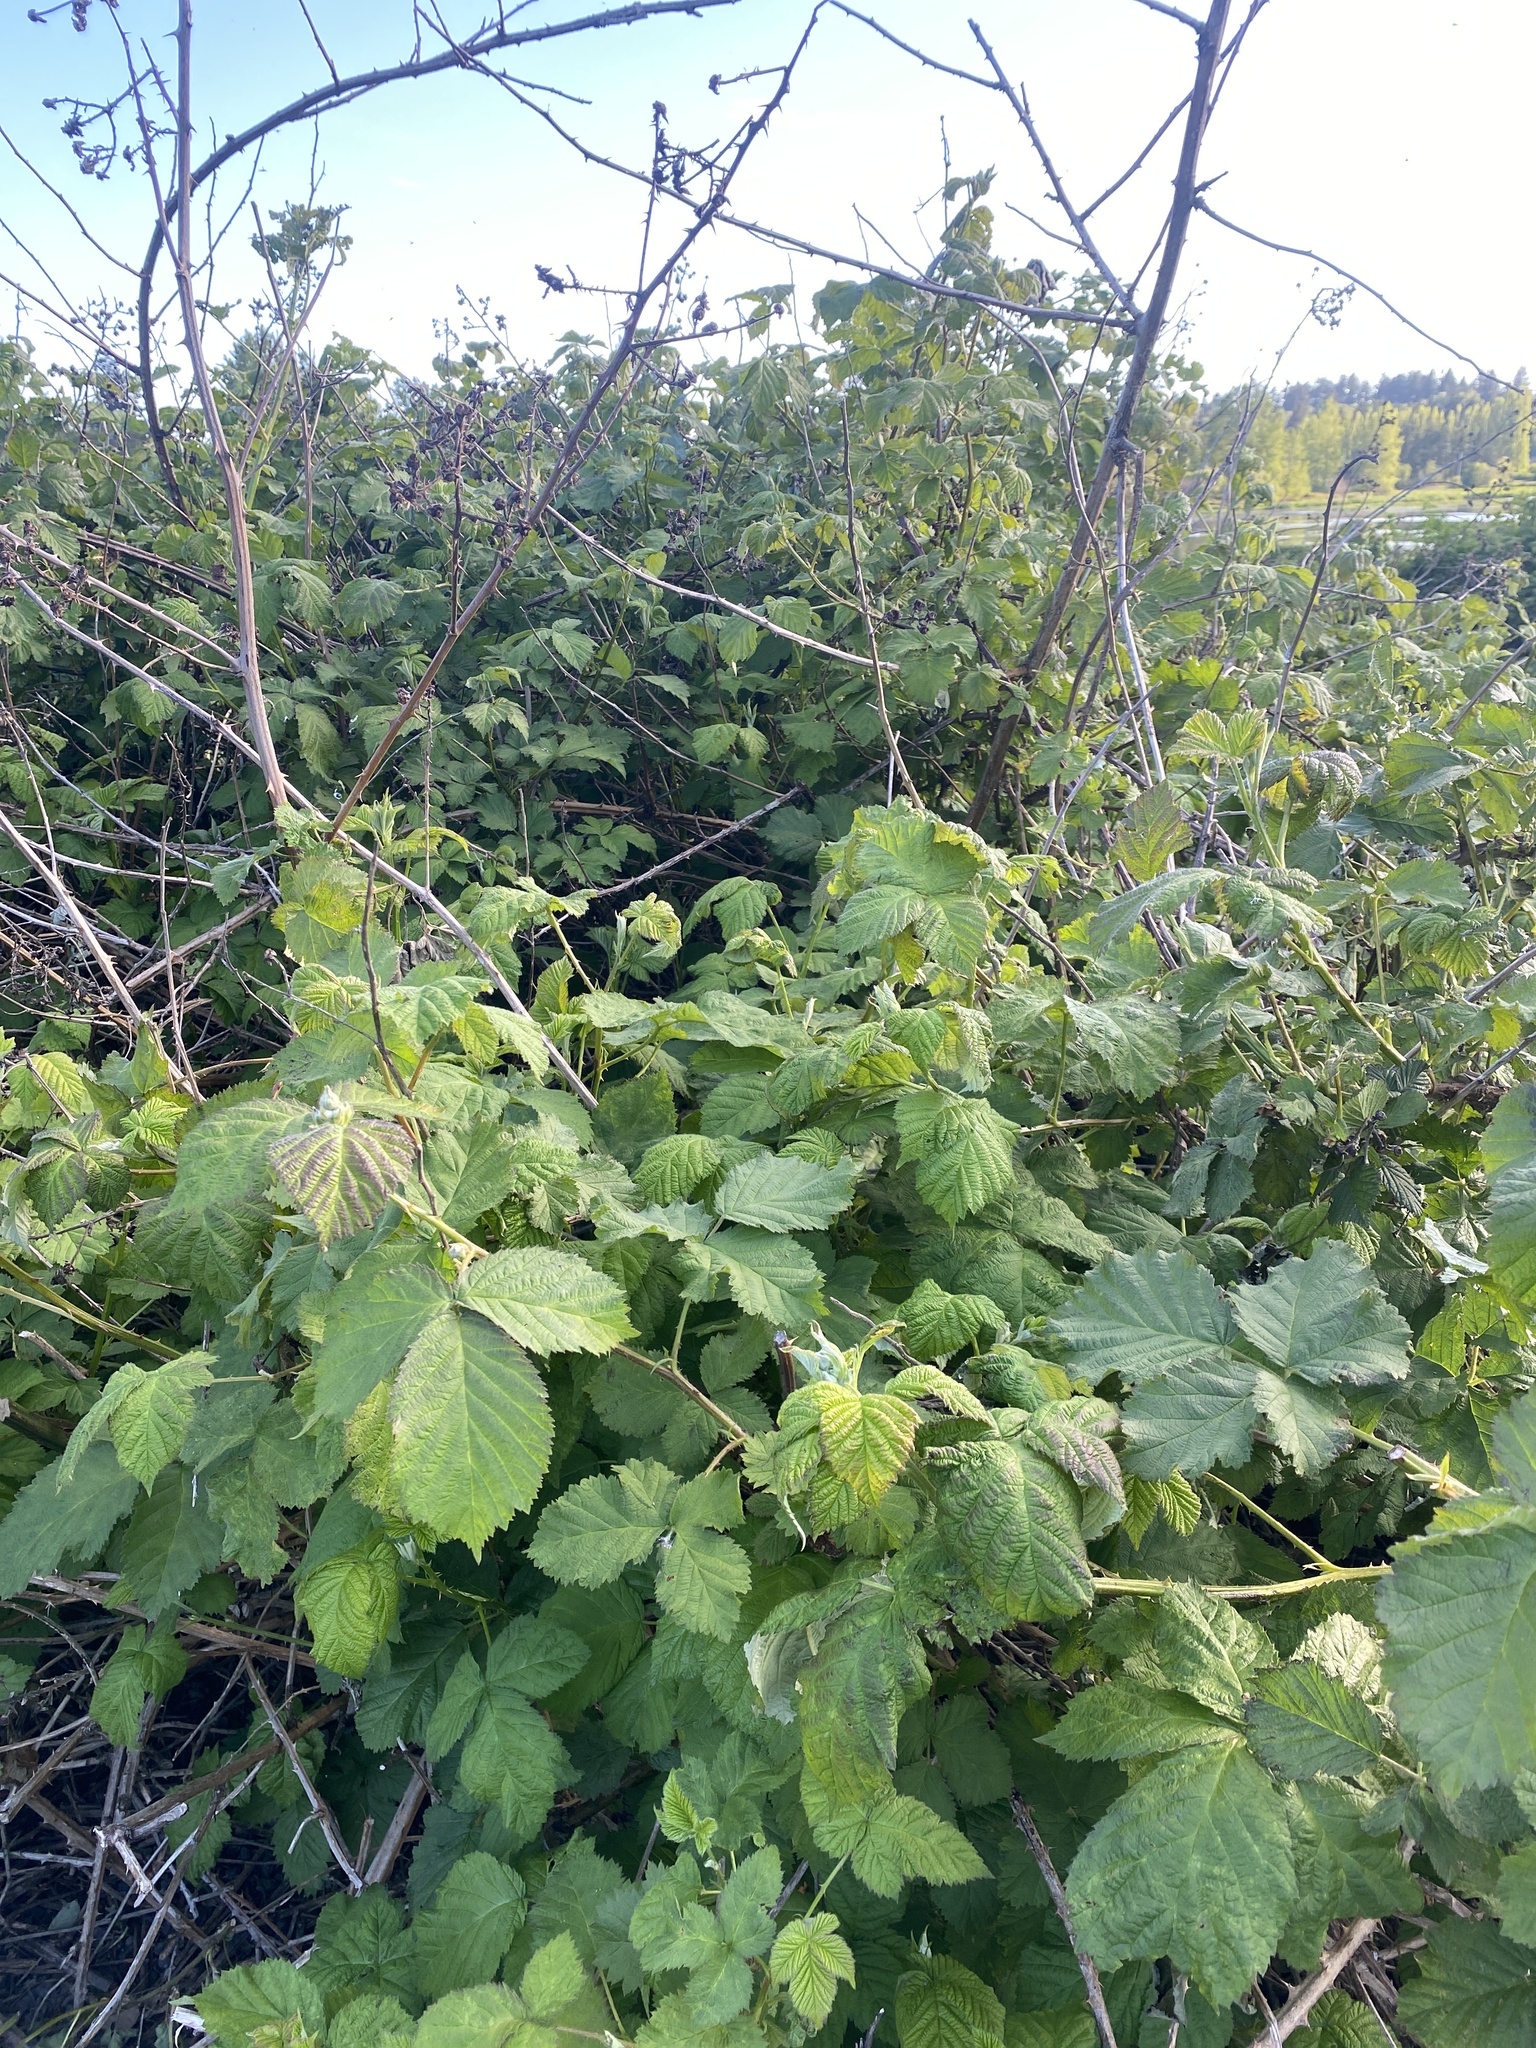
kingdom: Plantae
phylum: Tracheophyta
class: Magnoliopsida
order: Rosales
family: Rosaceae
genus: Rubus
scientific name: Rubus bifrons
